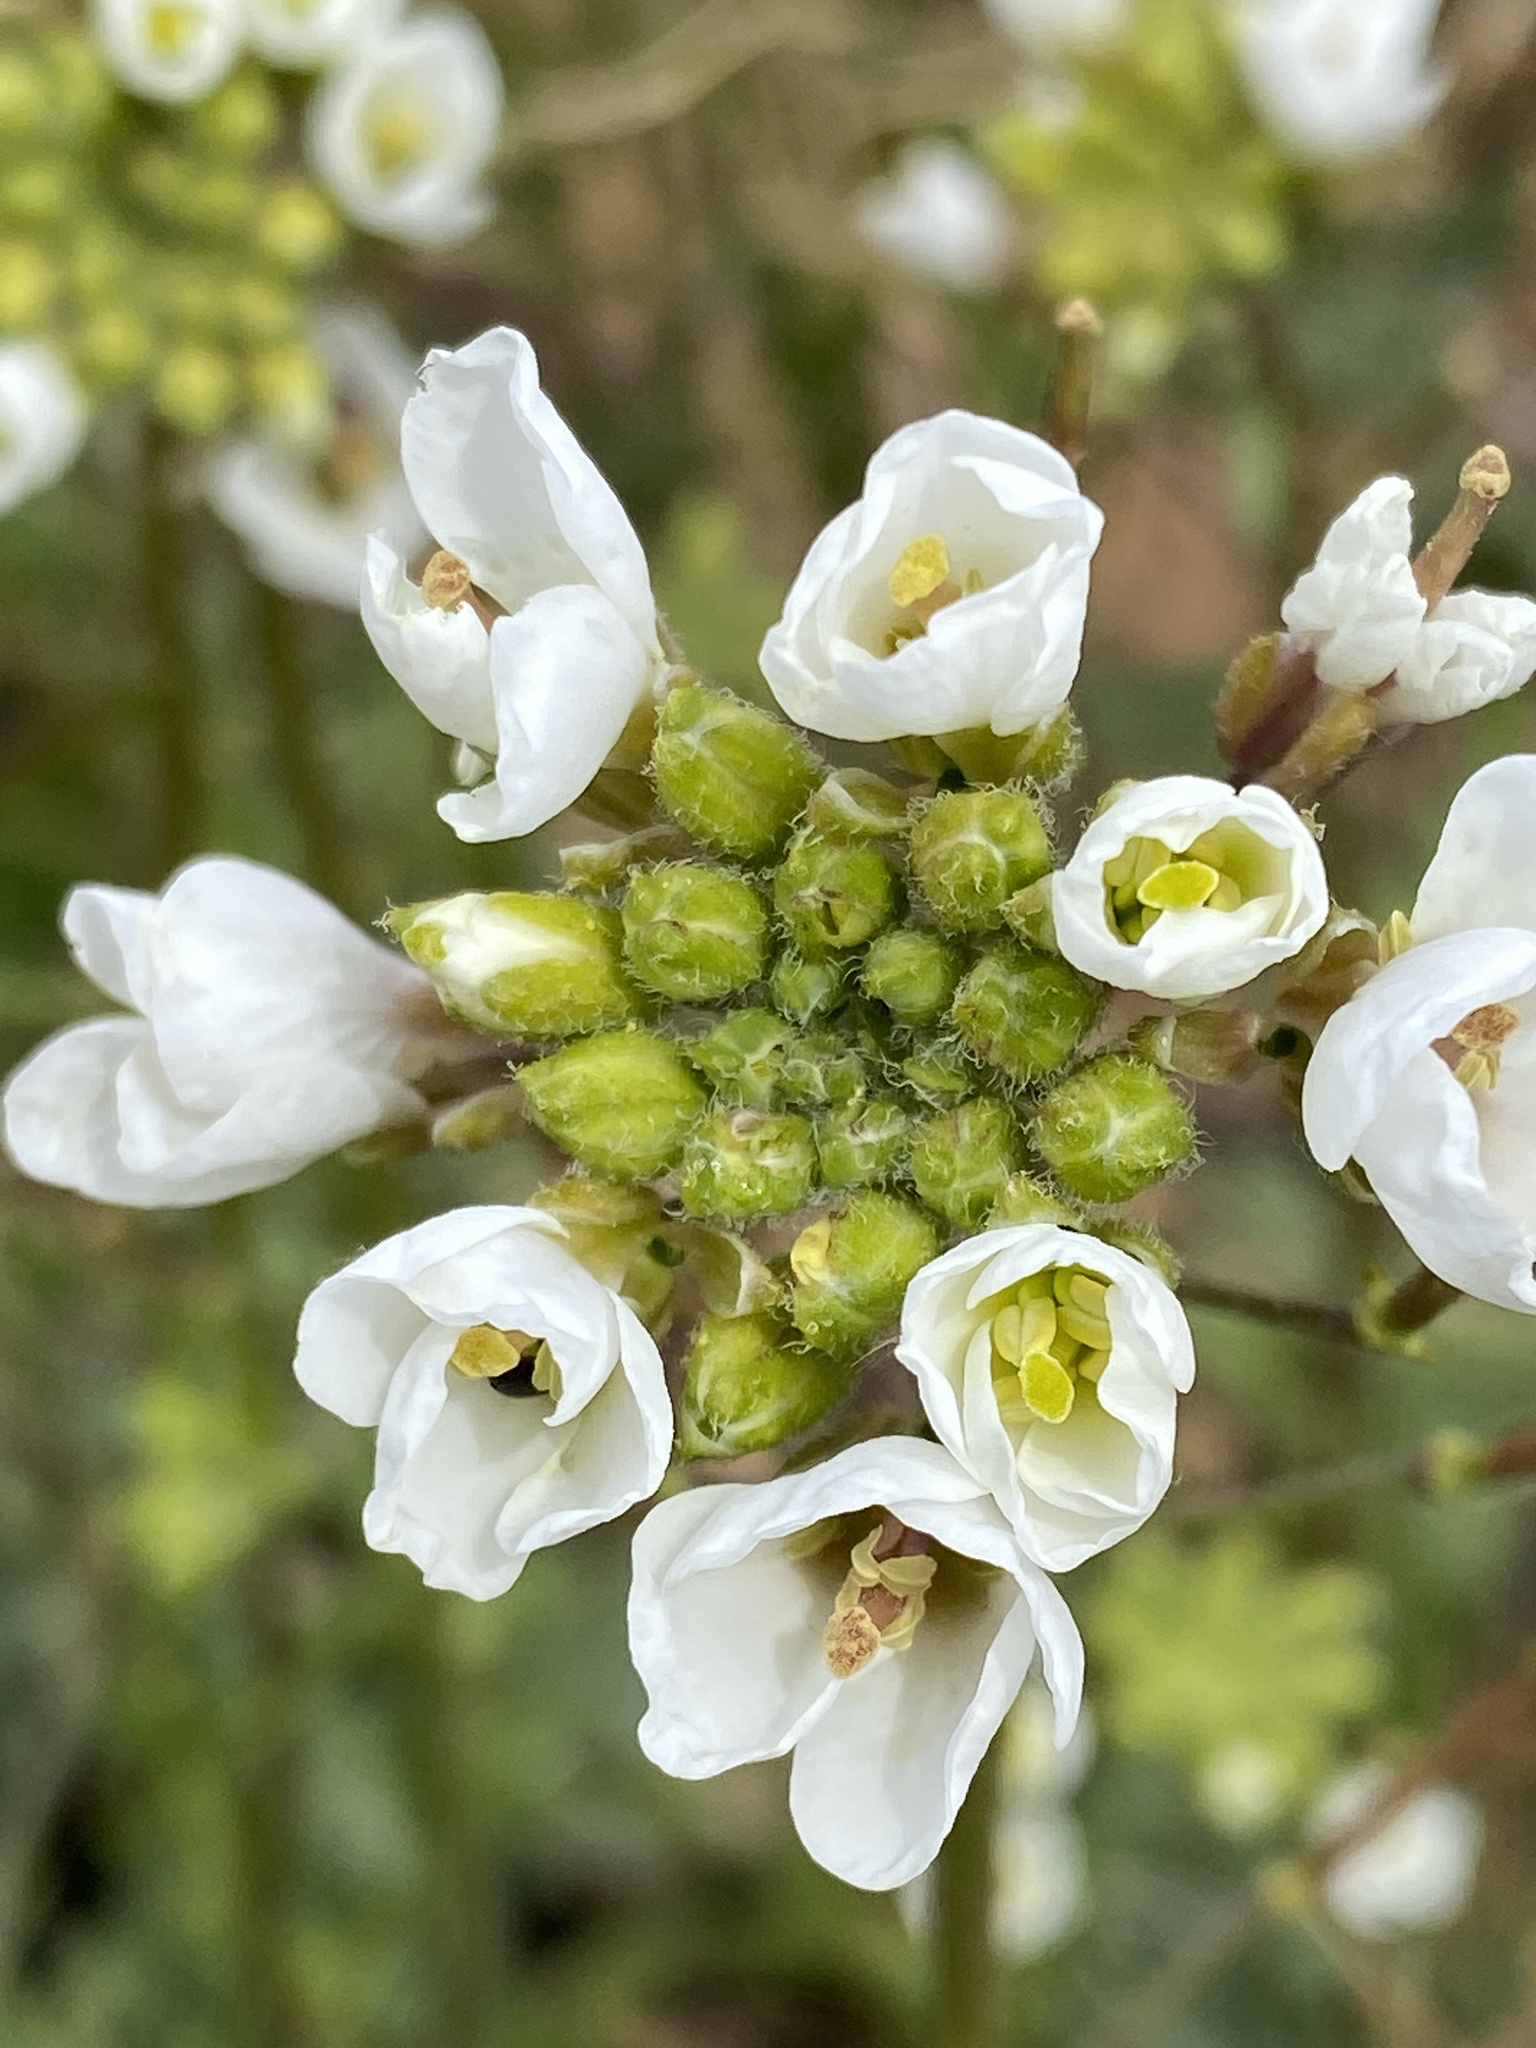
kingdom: Plantae
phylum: Tracheophyta
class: Magnoliopsida
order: Brassicales
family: Brassicaceae
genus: Diplotaxis
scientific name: Diplotaxis erucoides
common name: White rocket
